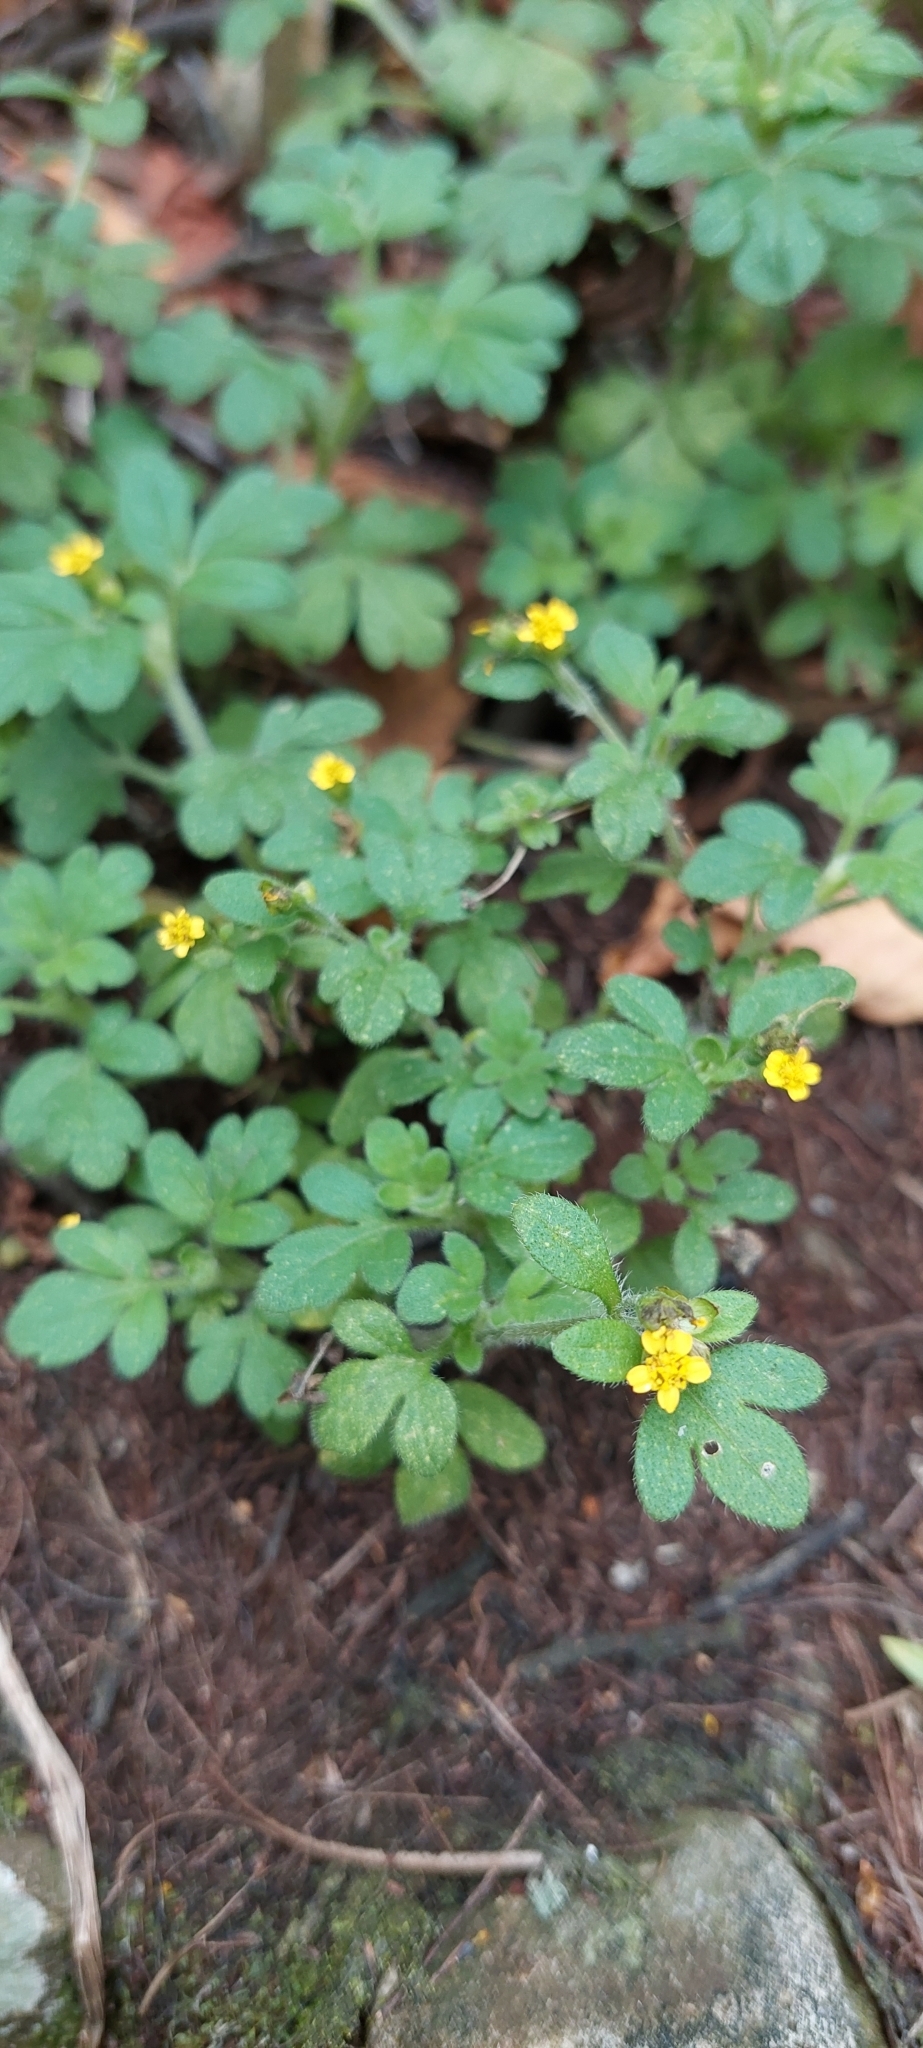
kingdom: Plantae
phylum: Tracheophyta
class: Magnoliopsida
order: Asterales
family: Asteraceae
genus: Villanova
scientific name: Villanova oppositifolia
